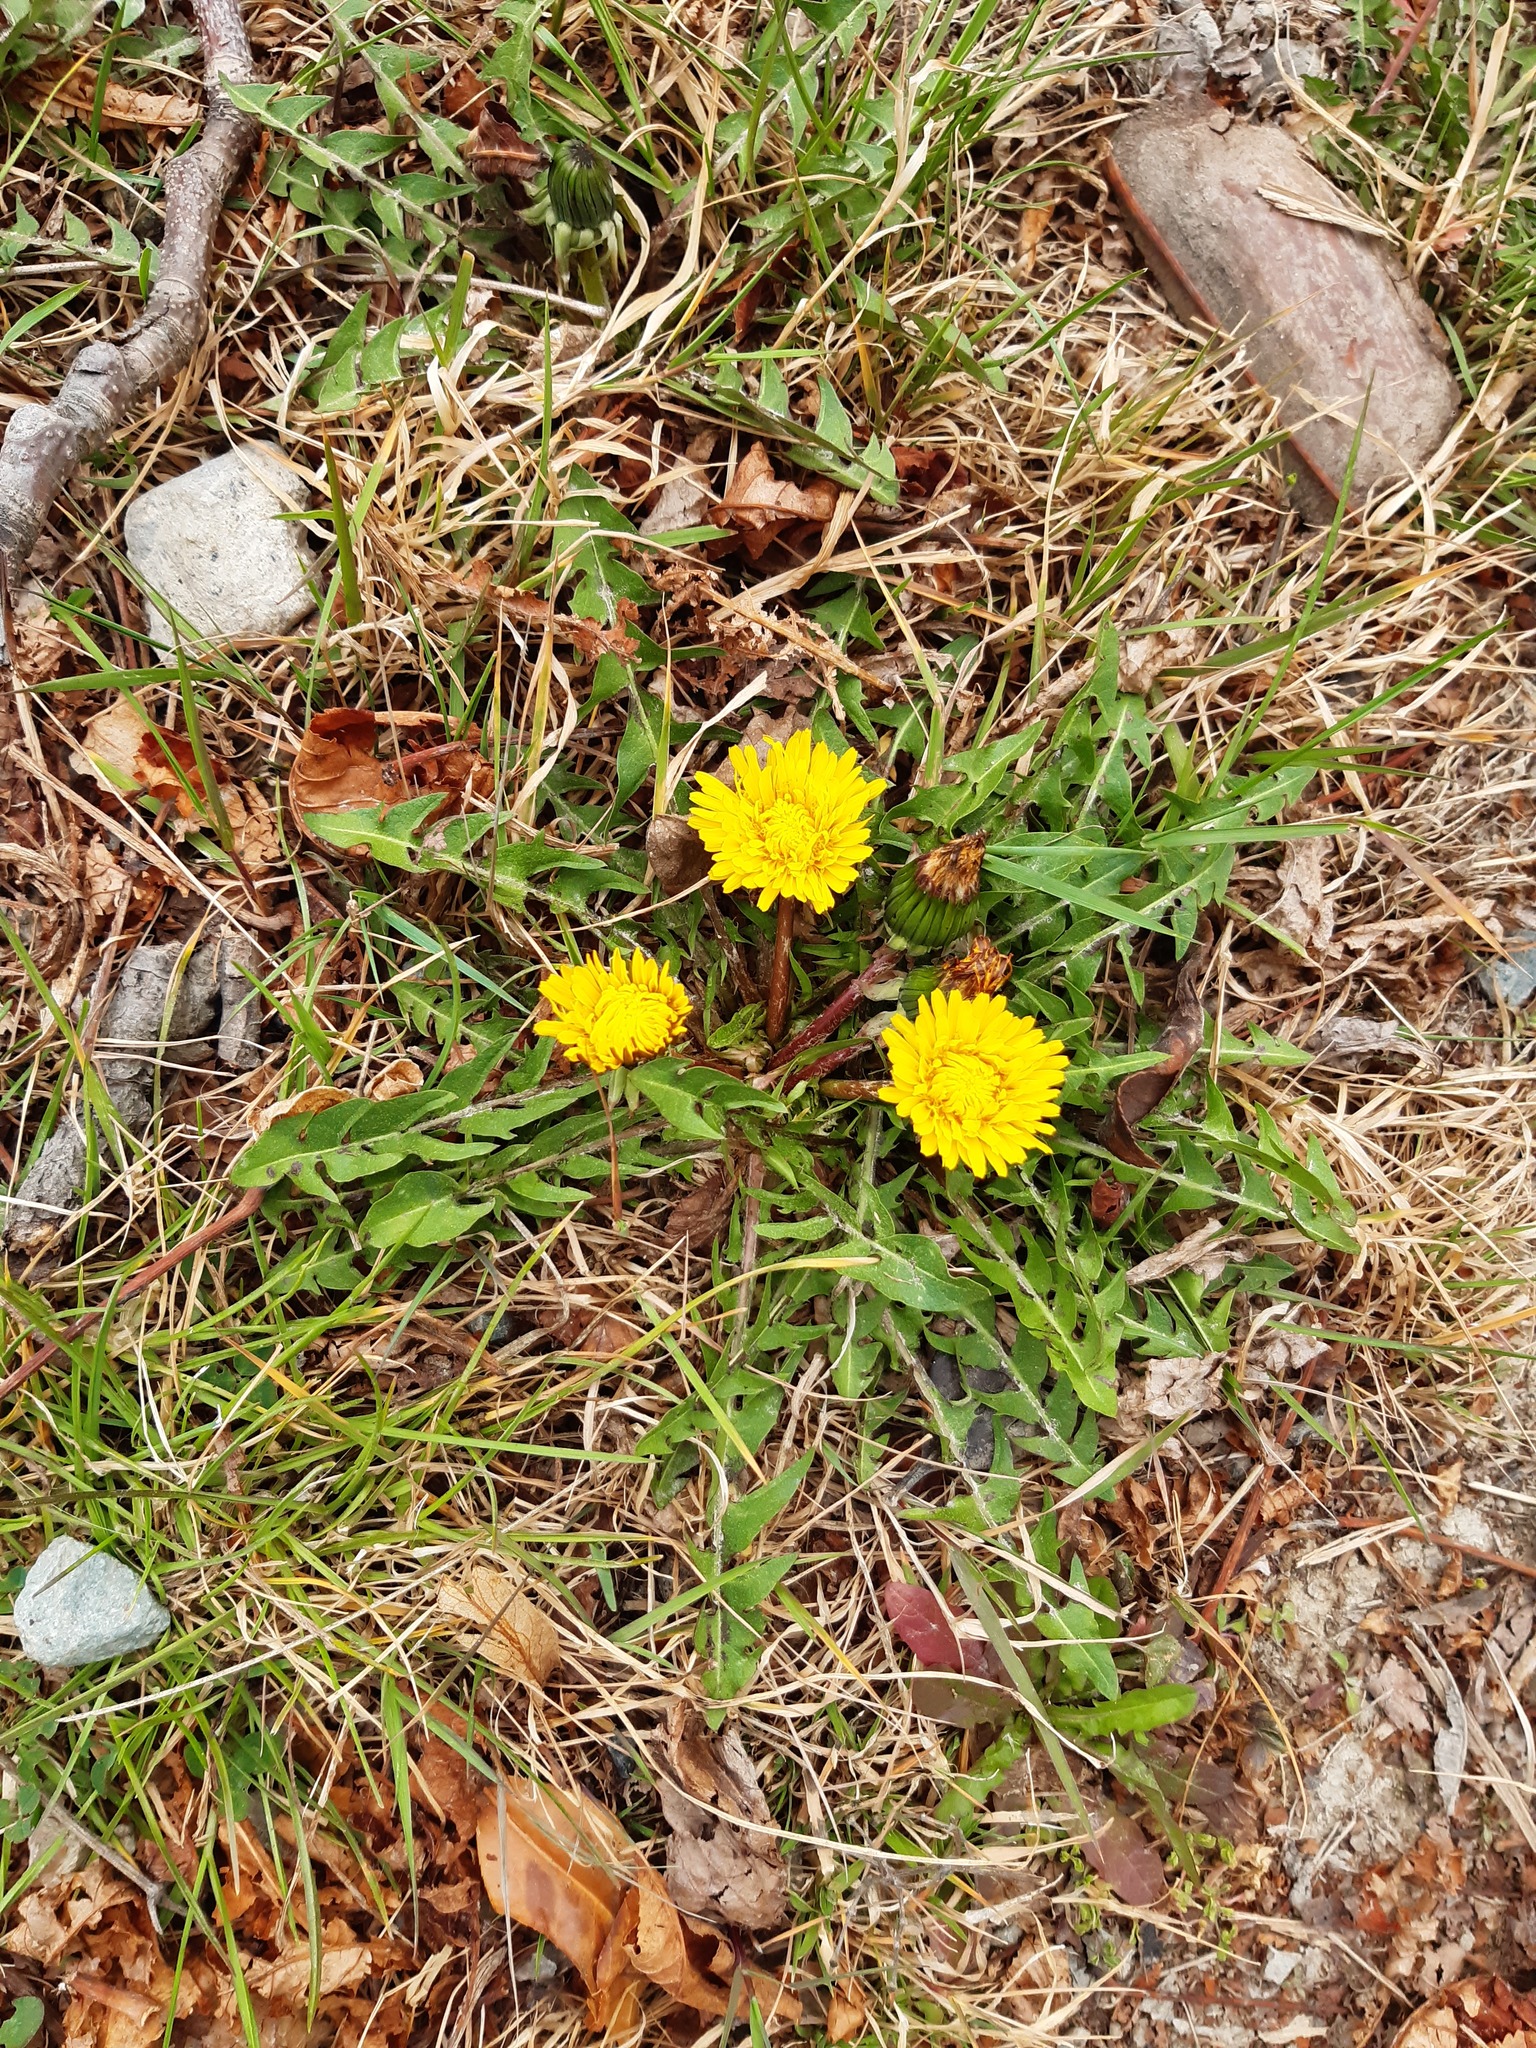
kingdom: Plantae
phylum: Tracheophyta
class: Magnoliopsida
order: Asterales
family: Asteraceae
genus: Taraxacum
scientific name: Taraxacum officinale
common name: Common dandelion
